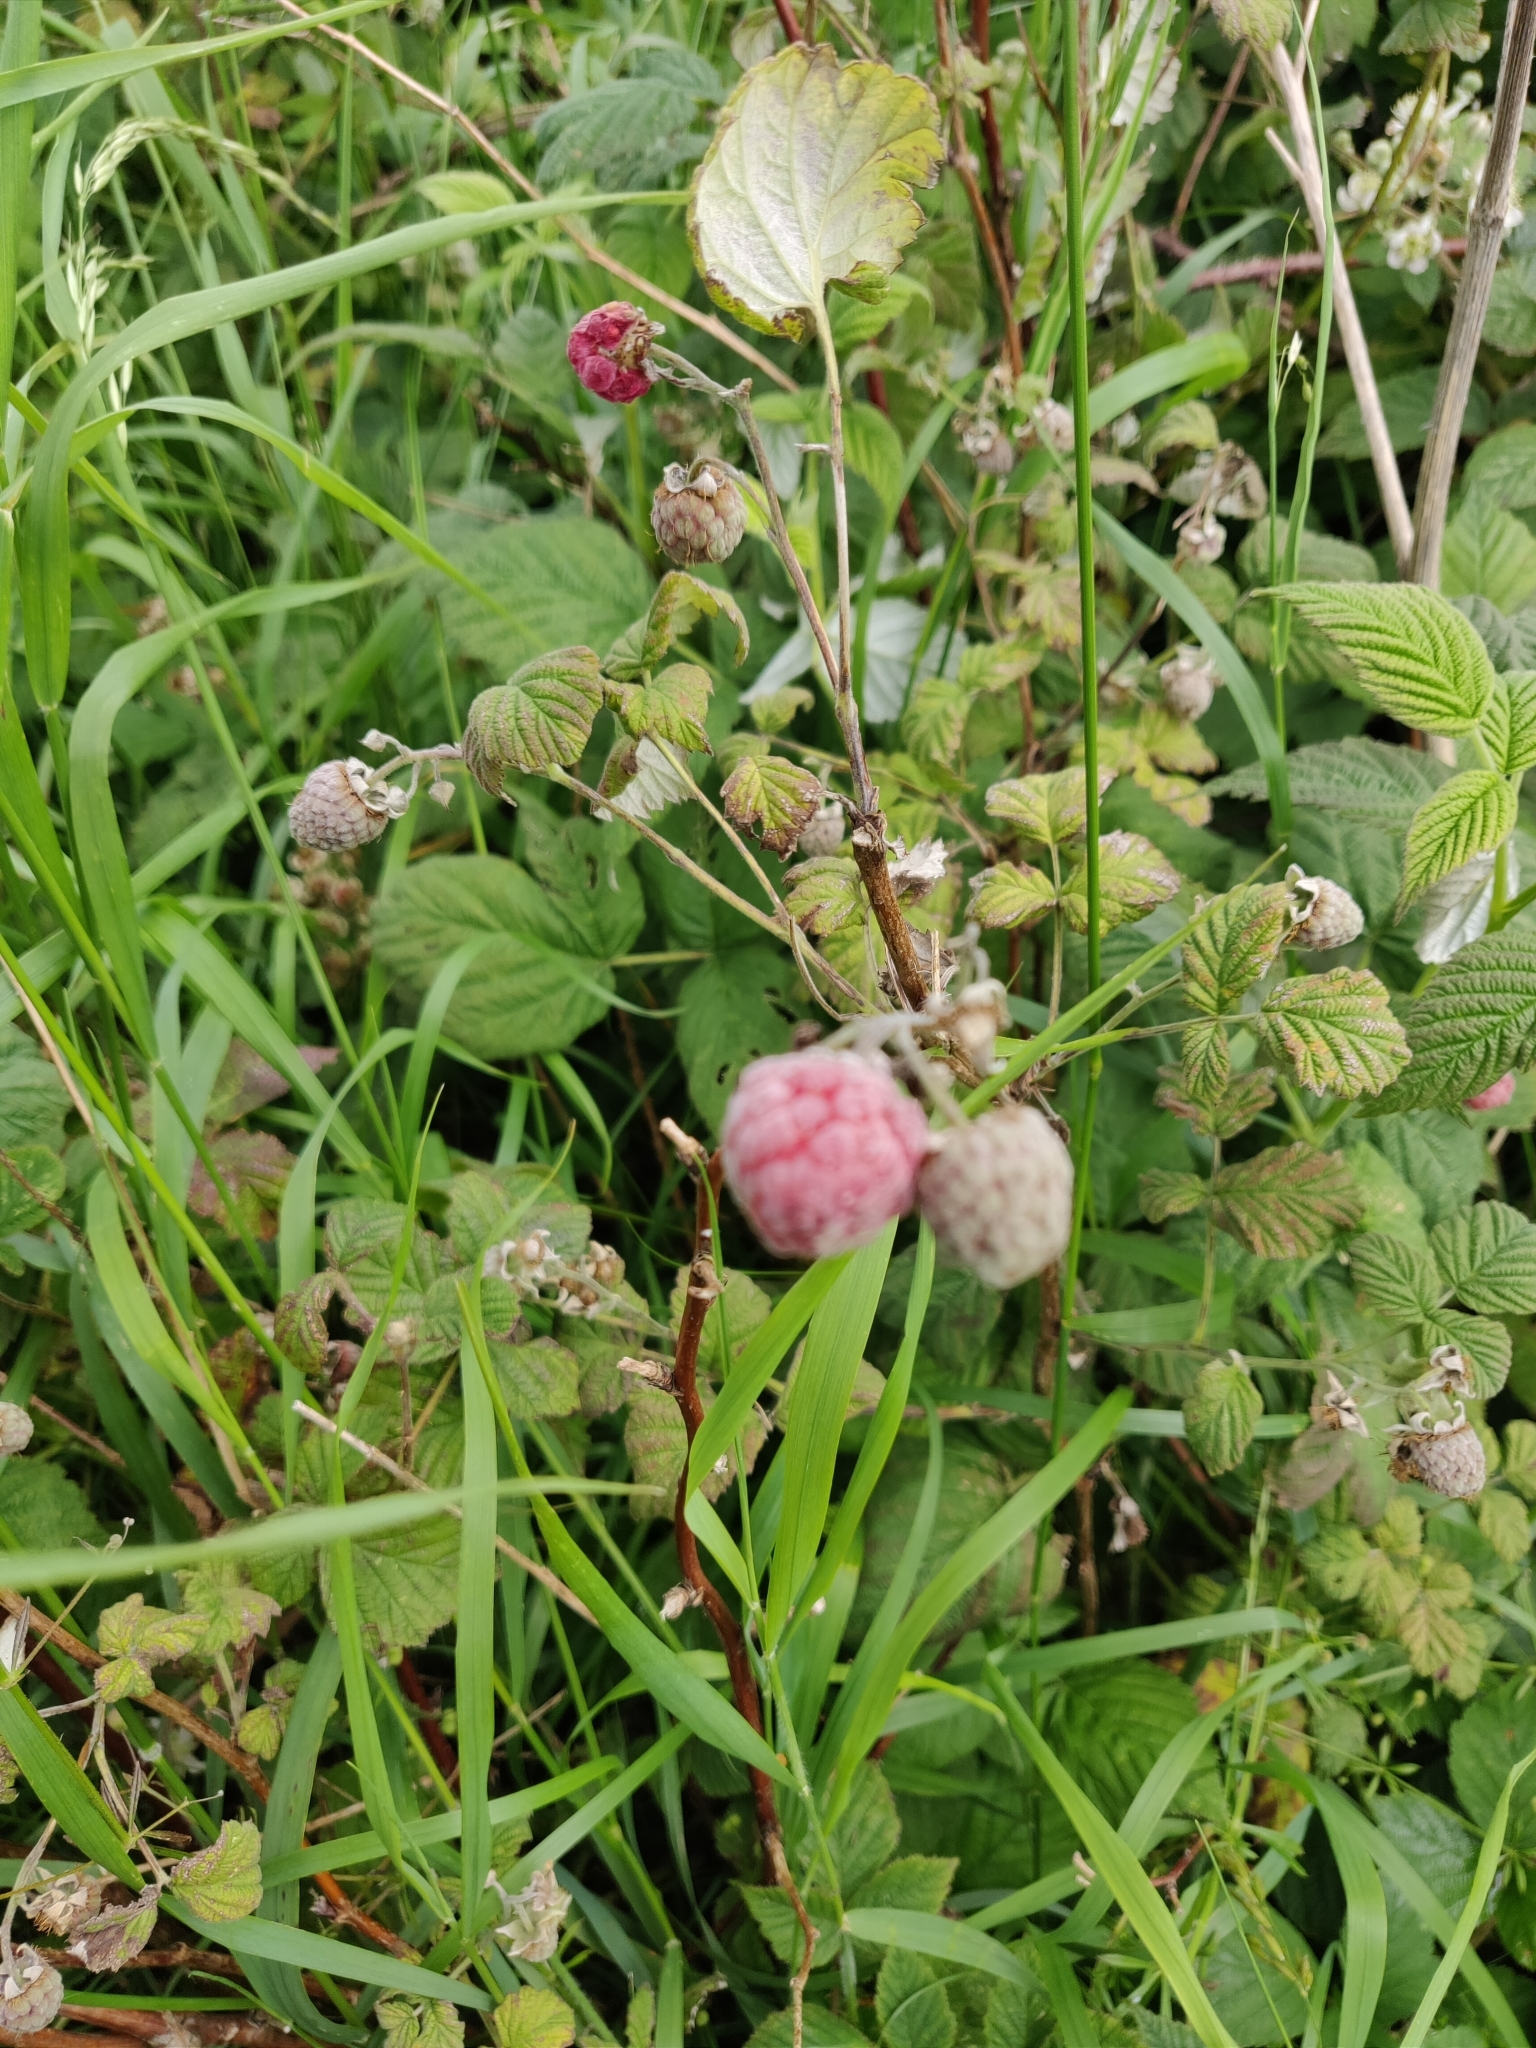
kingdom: Plantae
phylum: Tracheophyta
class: Magnoliopsida
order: Rosales
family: Rosaceae
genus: Rubus
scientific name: Rubus idaeus
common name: Raspberry
